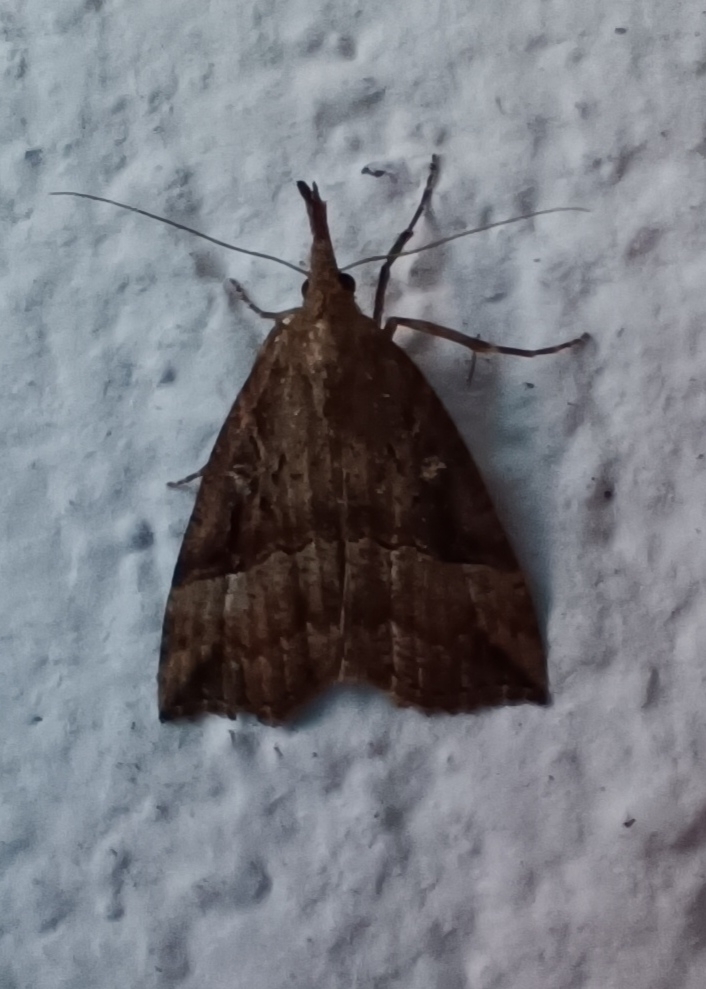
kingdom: Animalia
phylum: Arthropoda
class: Insecta
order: Lepidoptera
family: Erebidae
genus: Hypena
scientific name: Hypena rostralis
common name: Buttoned snout
